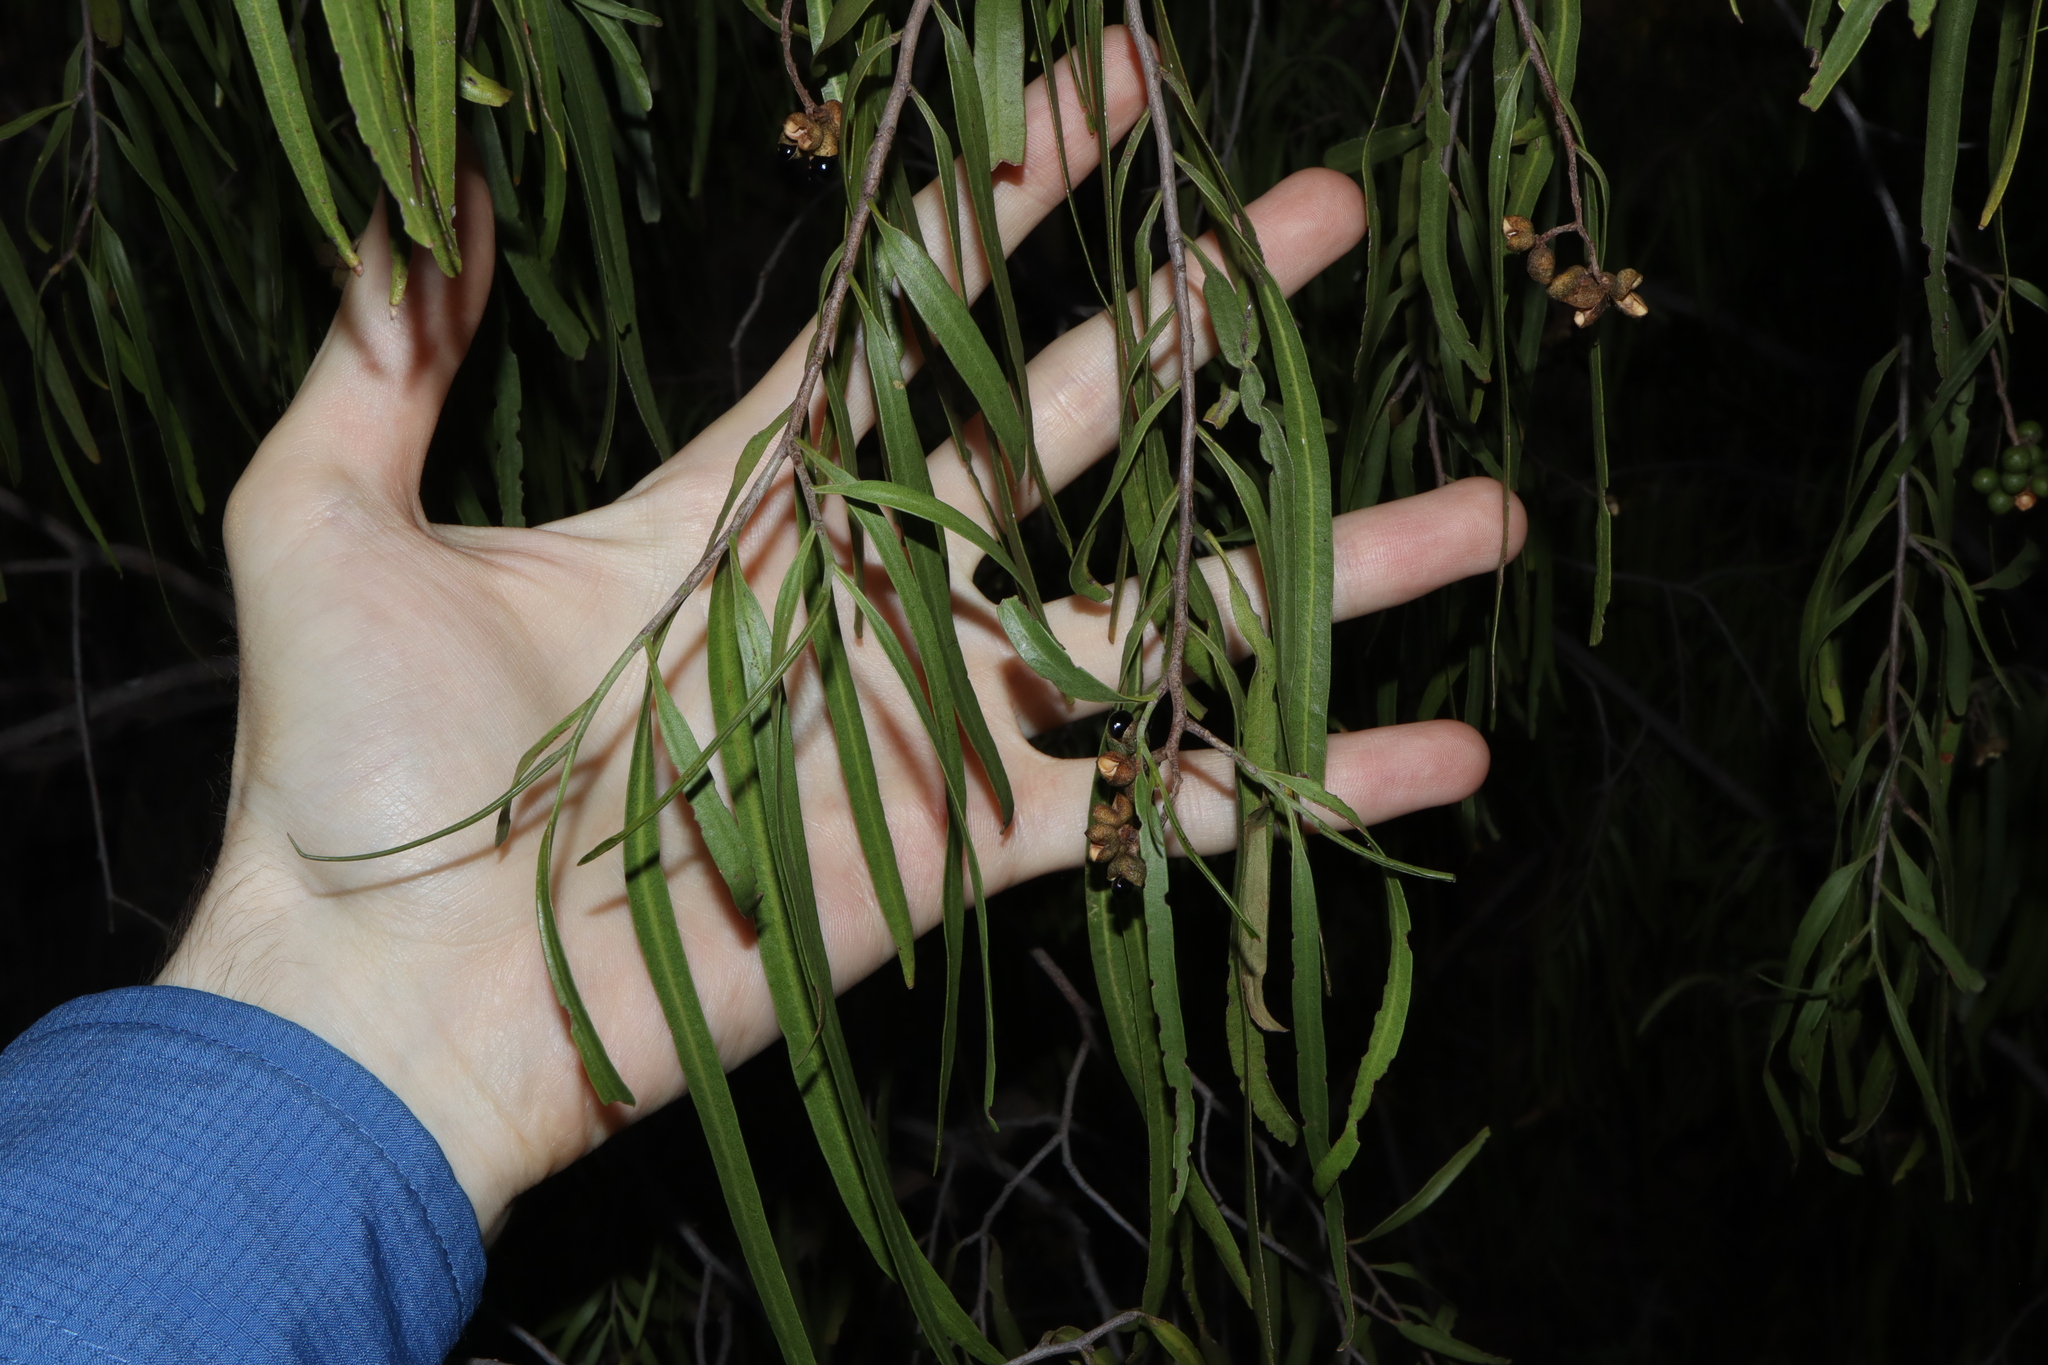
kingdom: Plantae
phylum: Tracheophyta
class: Magnoliopsida
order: Sapindales
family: Rutaceae
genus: Geijera
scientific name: Geijera parviflora
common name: Wilga
